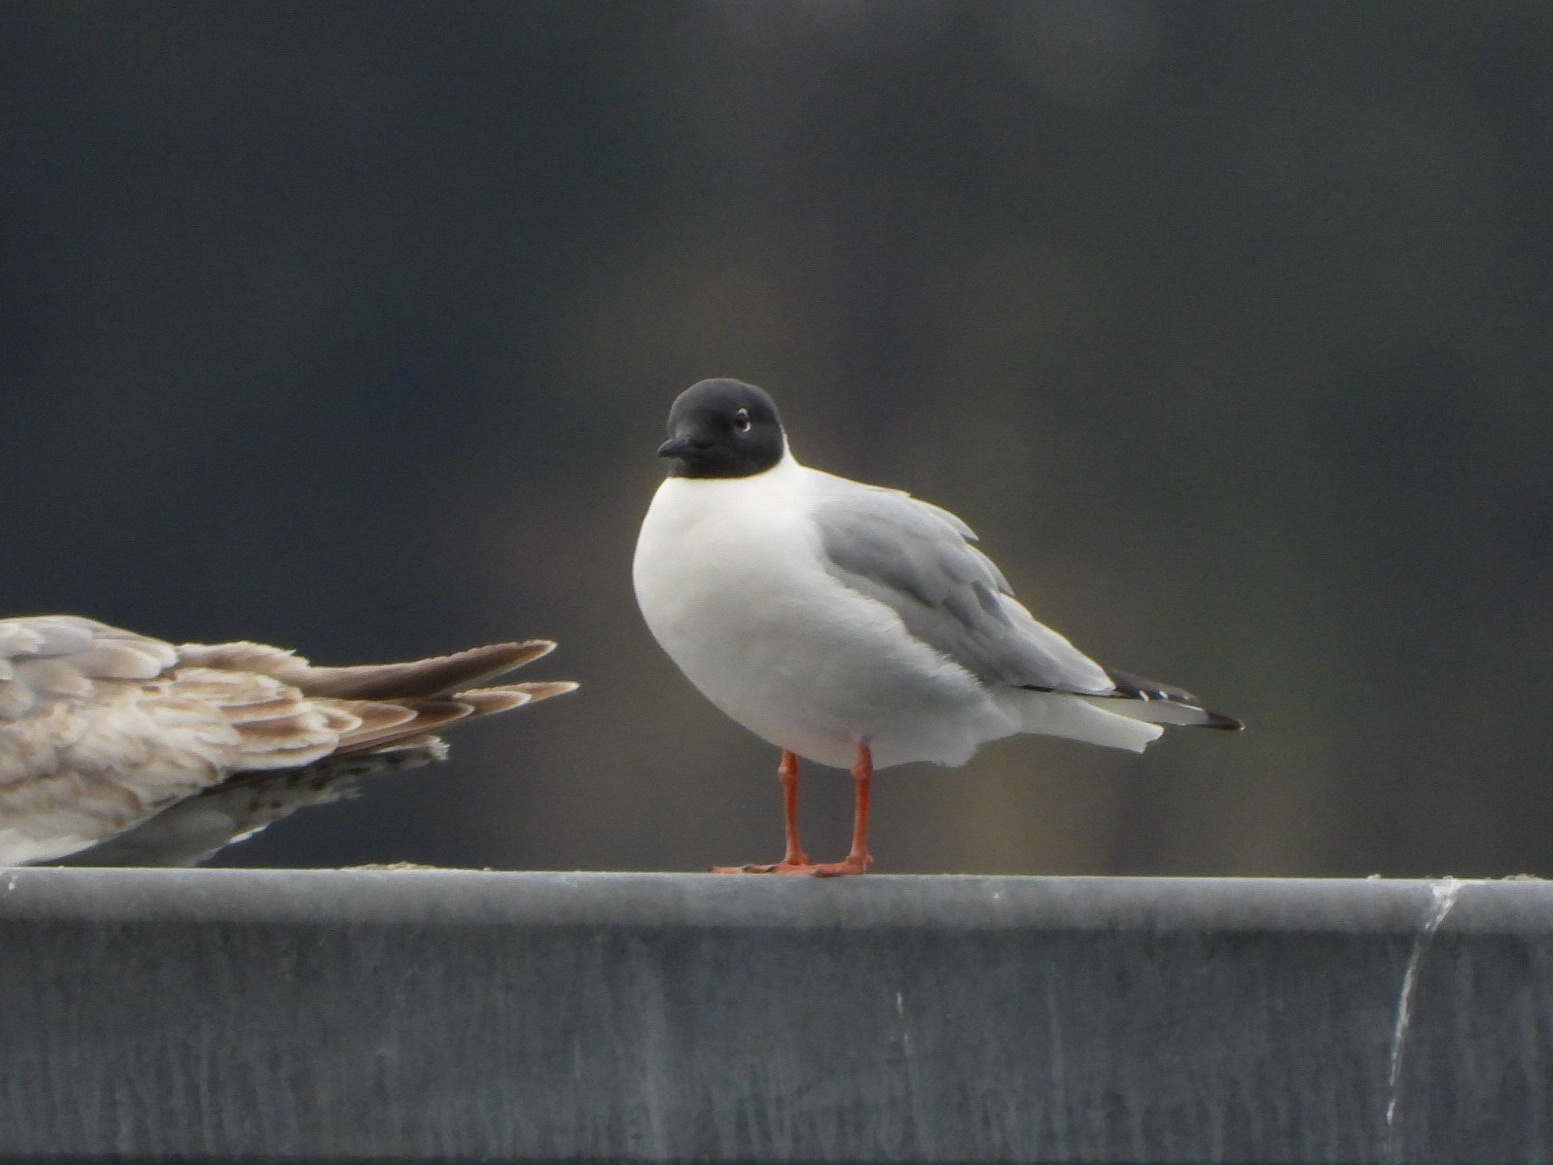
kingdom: Animalia
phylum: Chordata
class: Aves
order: Charadriiformes
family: Laridae
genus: Chroicocephalus
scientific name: Chroicocephalus philadelphia
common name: Bonaparte's gull
